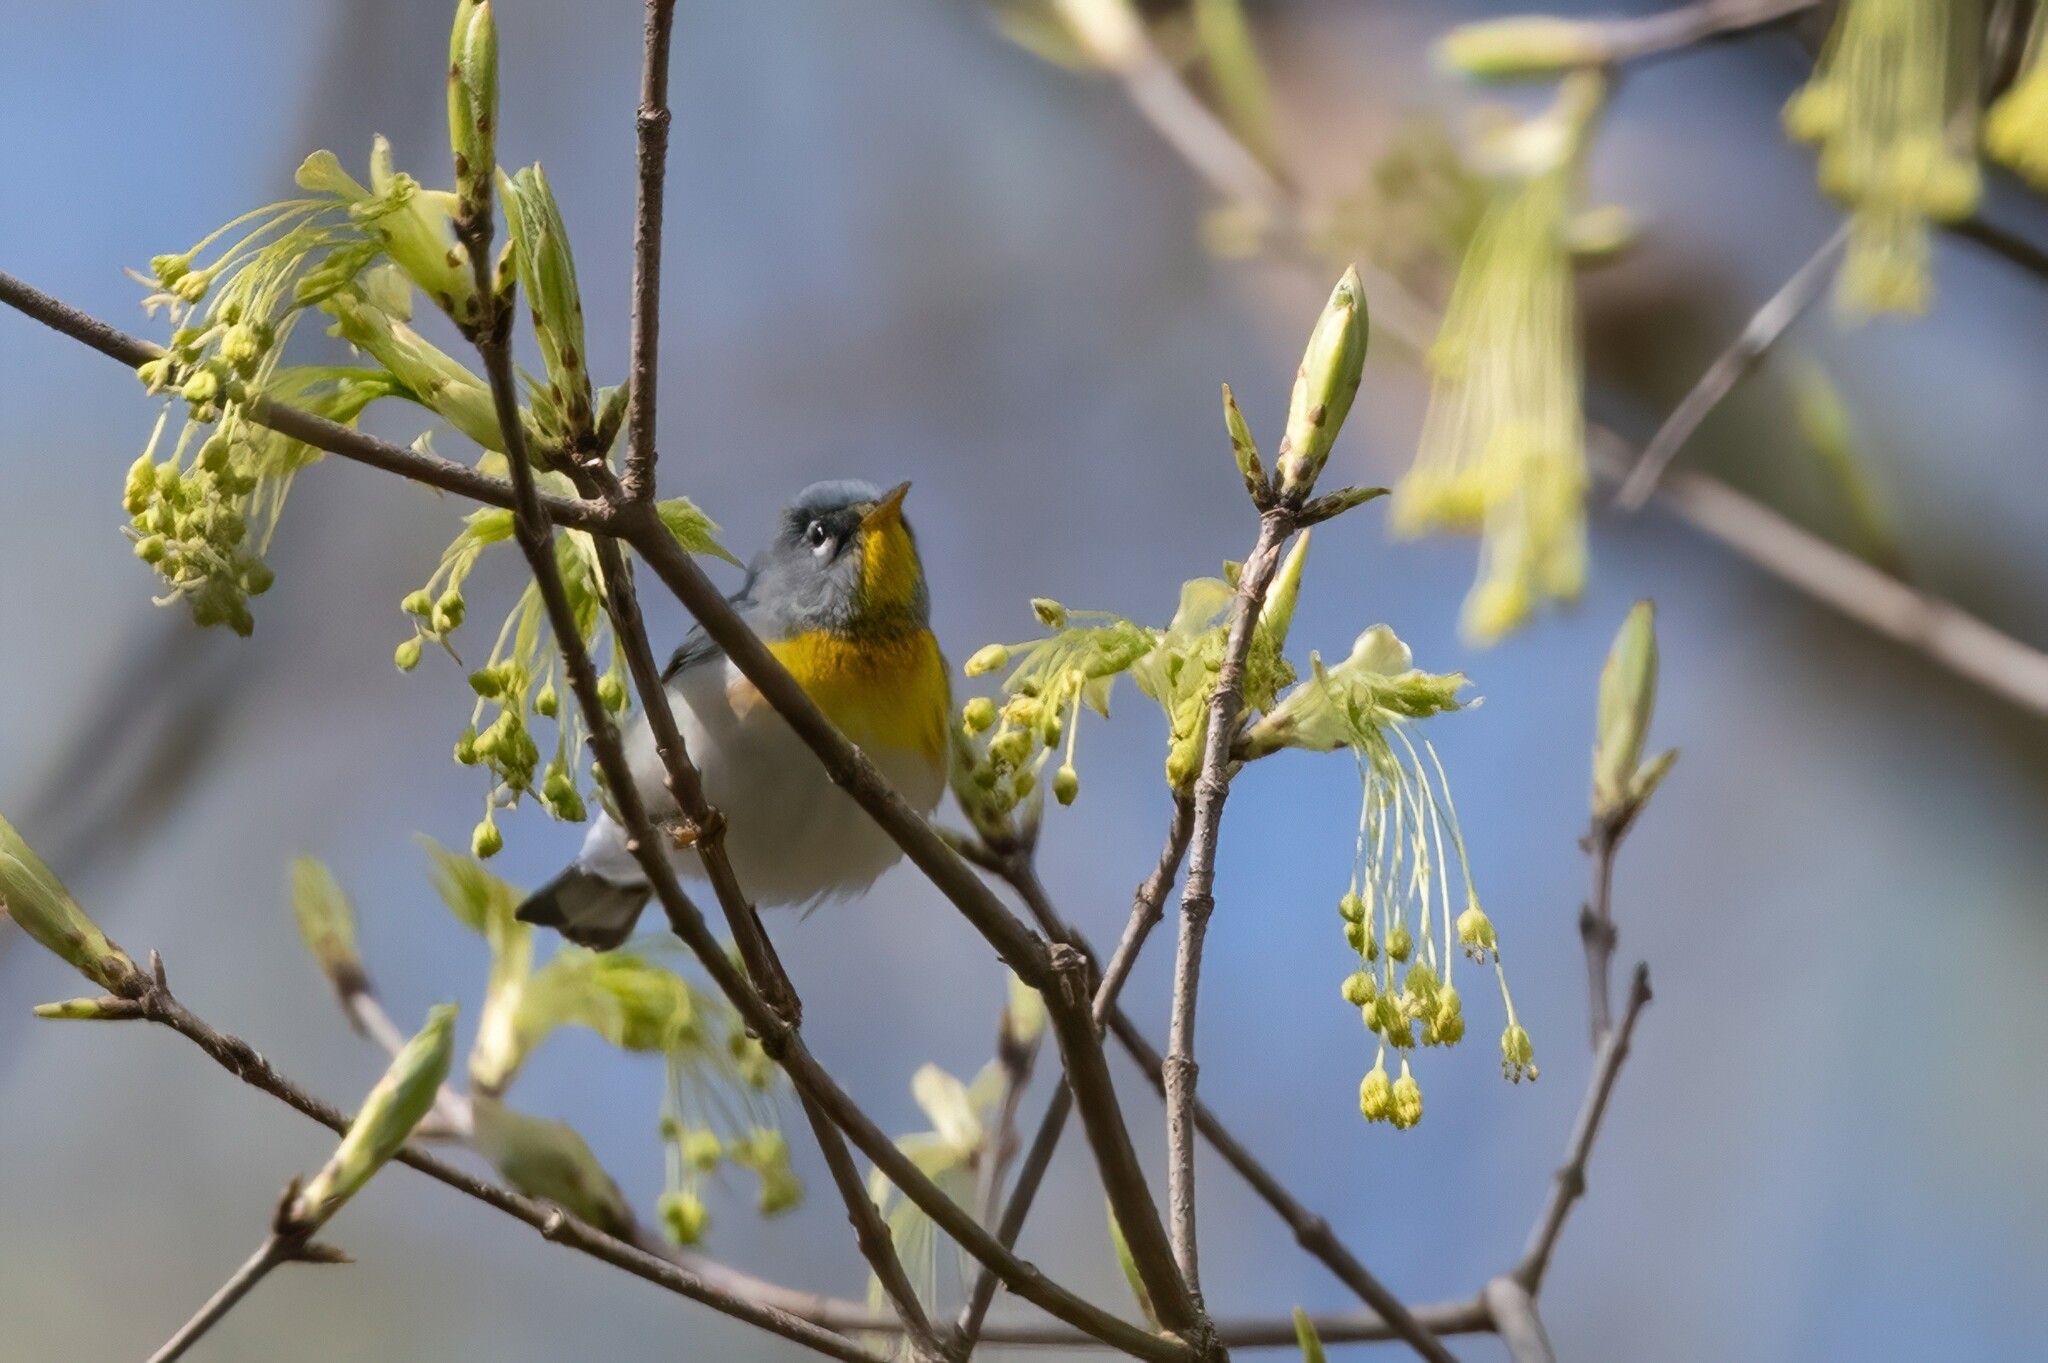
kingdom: Animalia
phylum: Chordata
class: Aves
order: Passeriformes
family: Parulidae
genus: Setophaga
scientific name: Setophaga americana
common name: Northern parula
